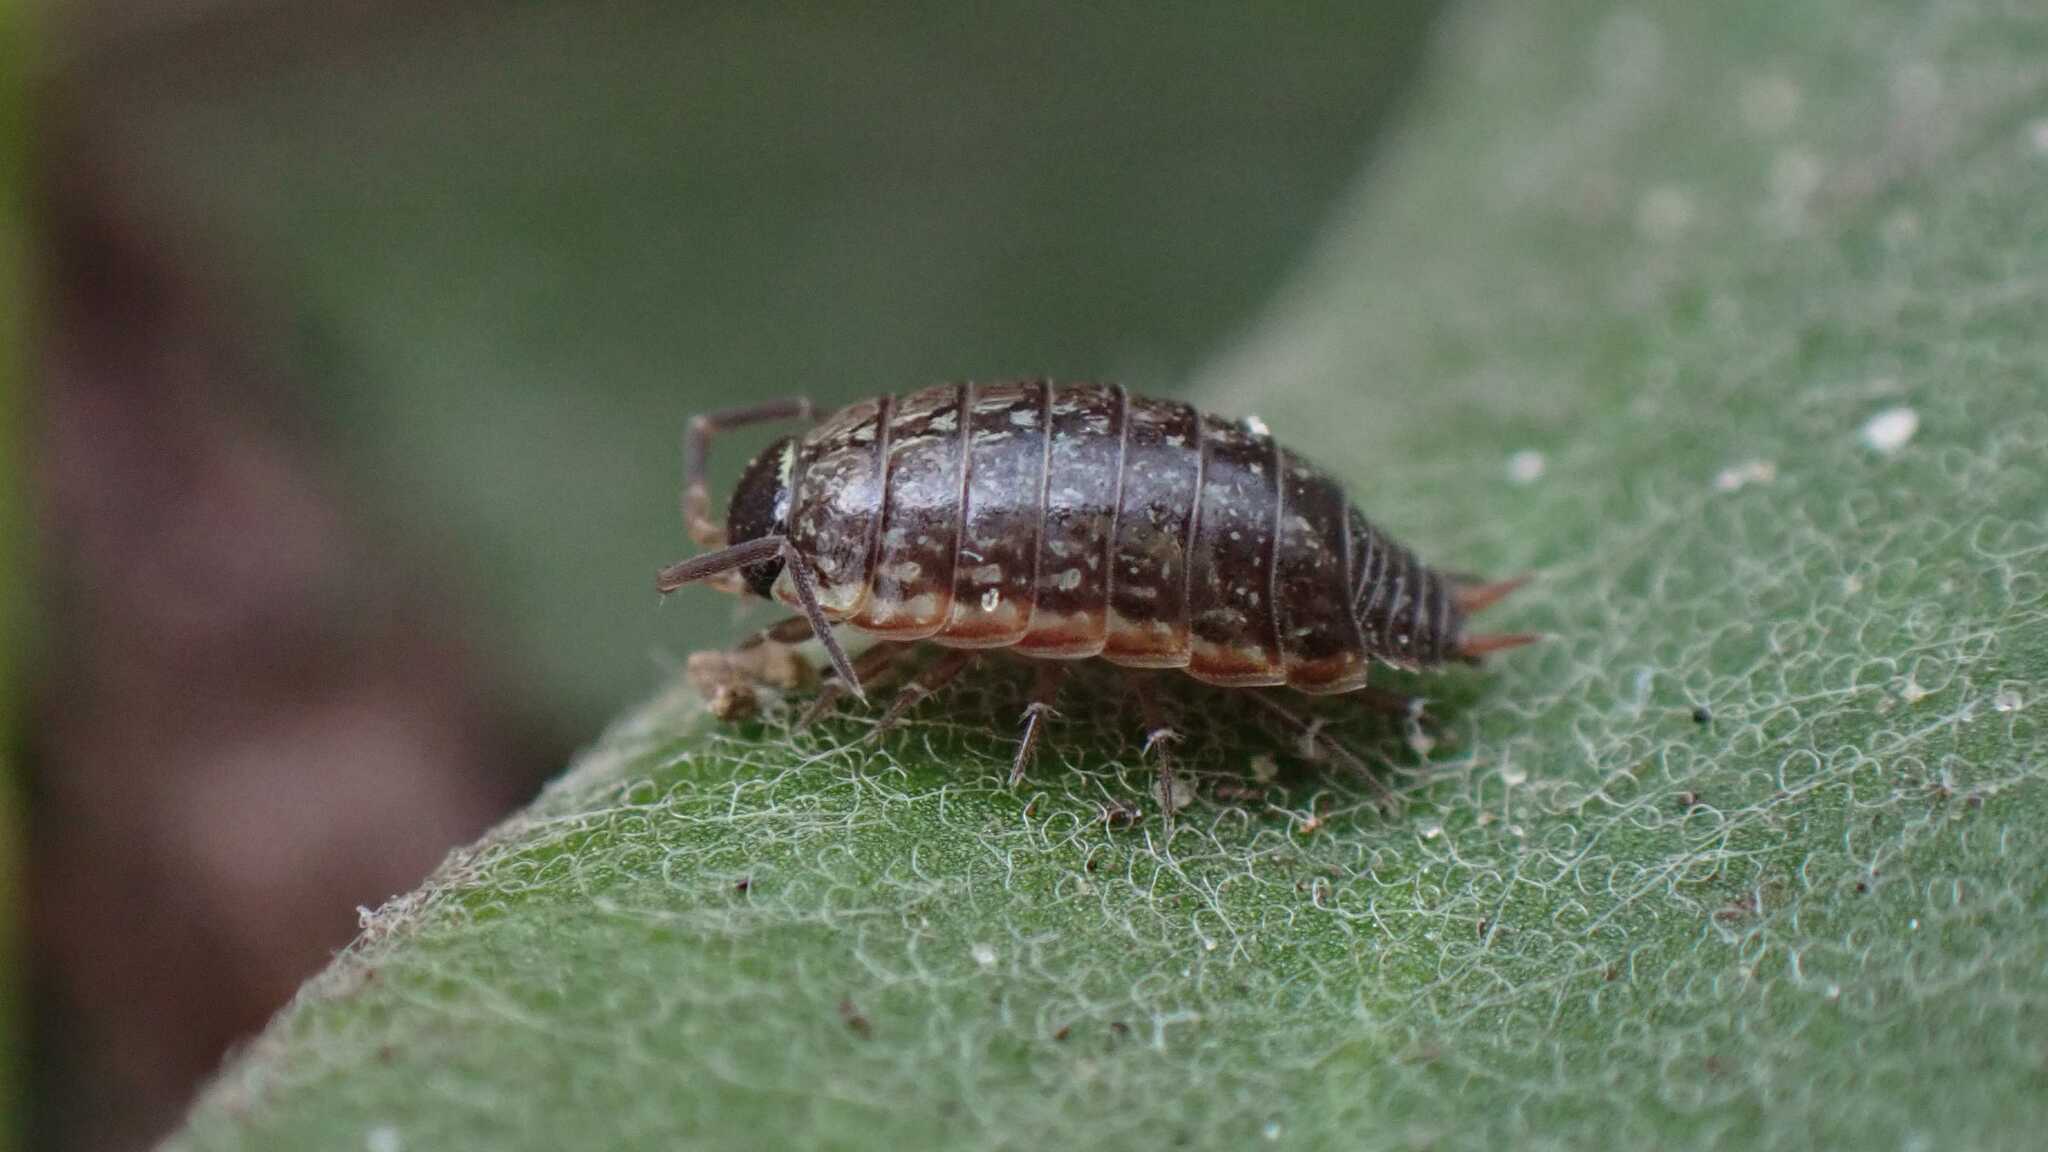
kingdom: Animalia
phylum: Arthropoda
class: Malacostraca
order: Isopoda
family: Philosciidae
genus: Philoscia
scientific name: Philoscia muscorum
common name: Common striped woodlouse
